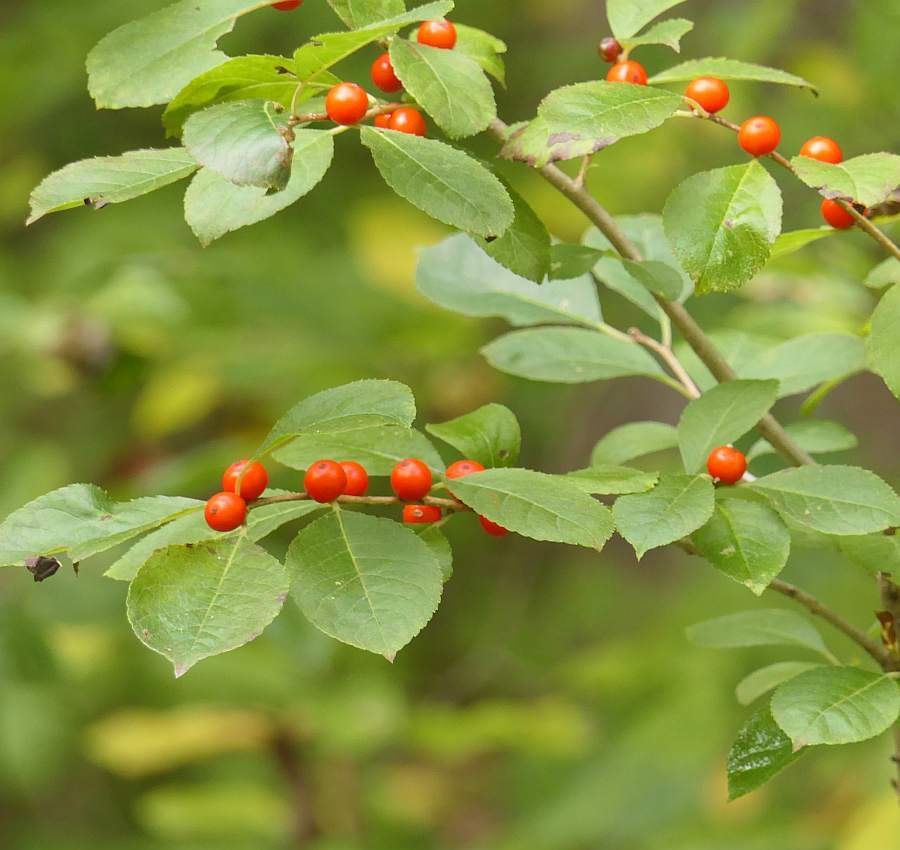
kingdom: Plantae
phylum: Tracheophyta
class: Magnoliopsida
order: Aquifoliales
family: Aquifoliaceae
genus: Ilex
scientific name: Ilex verticillata
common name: Virginia winterberry
